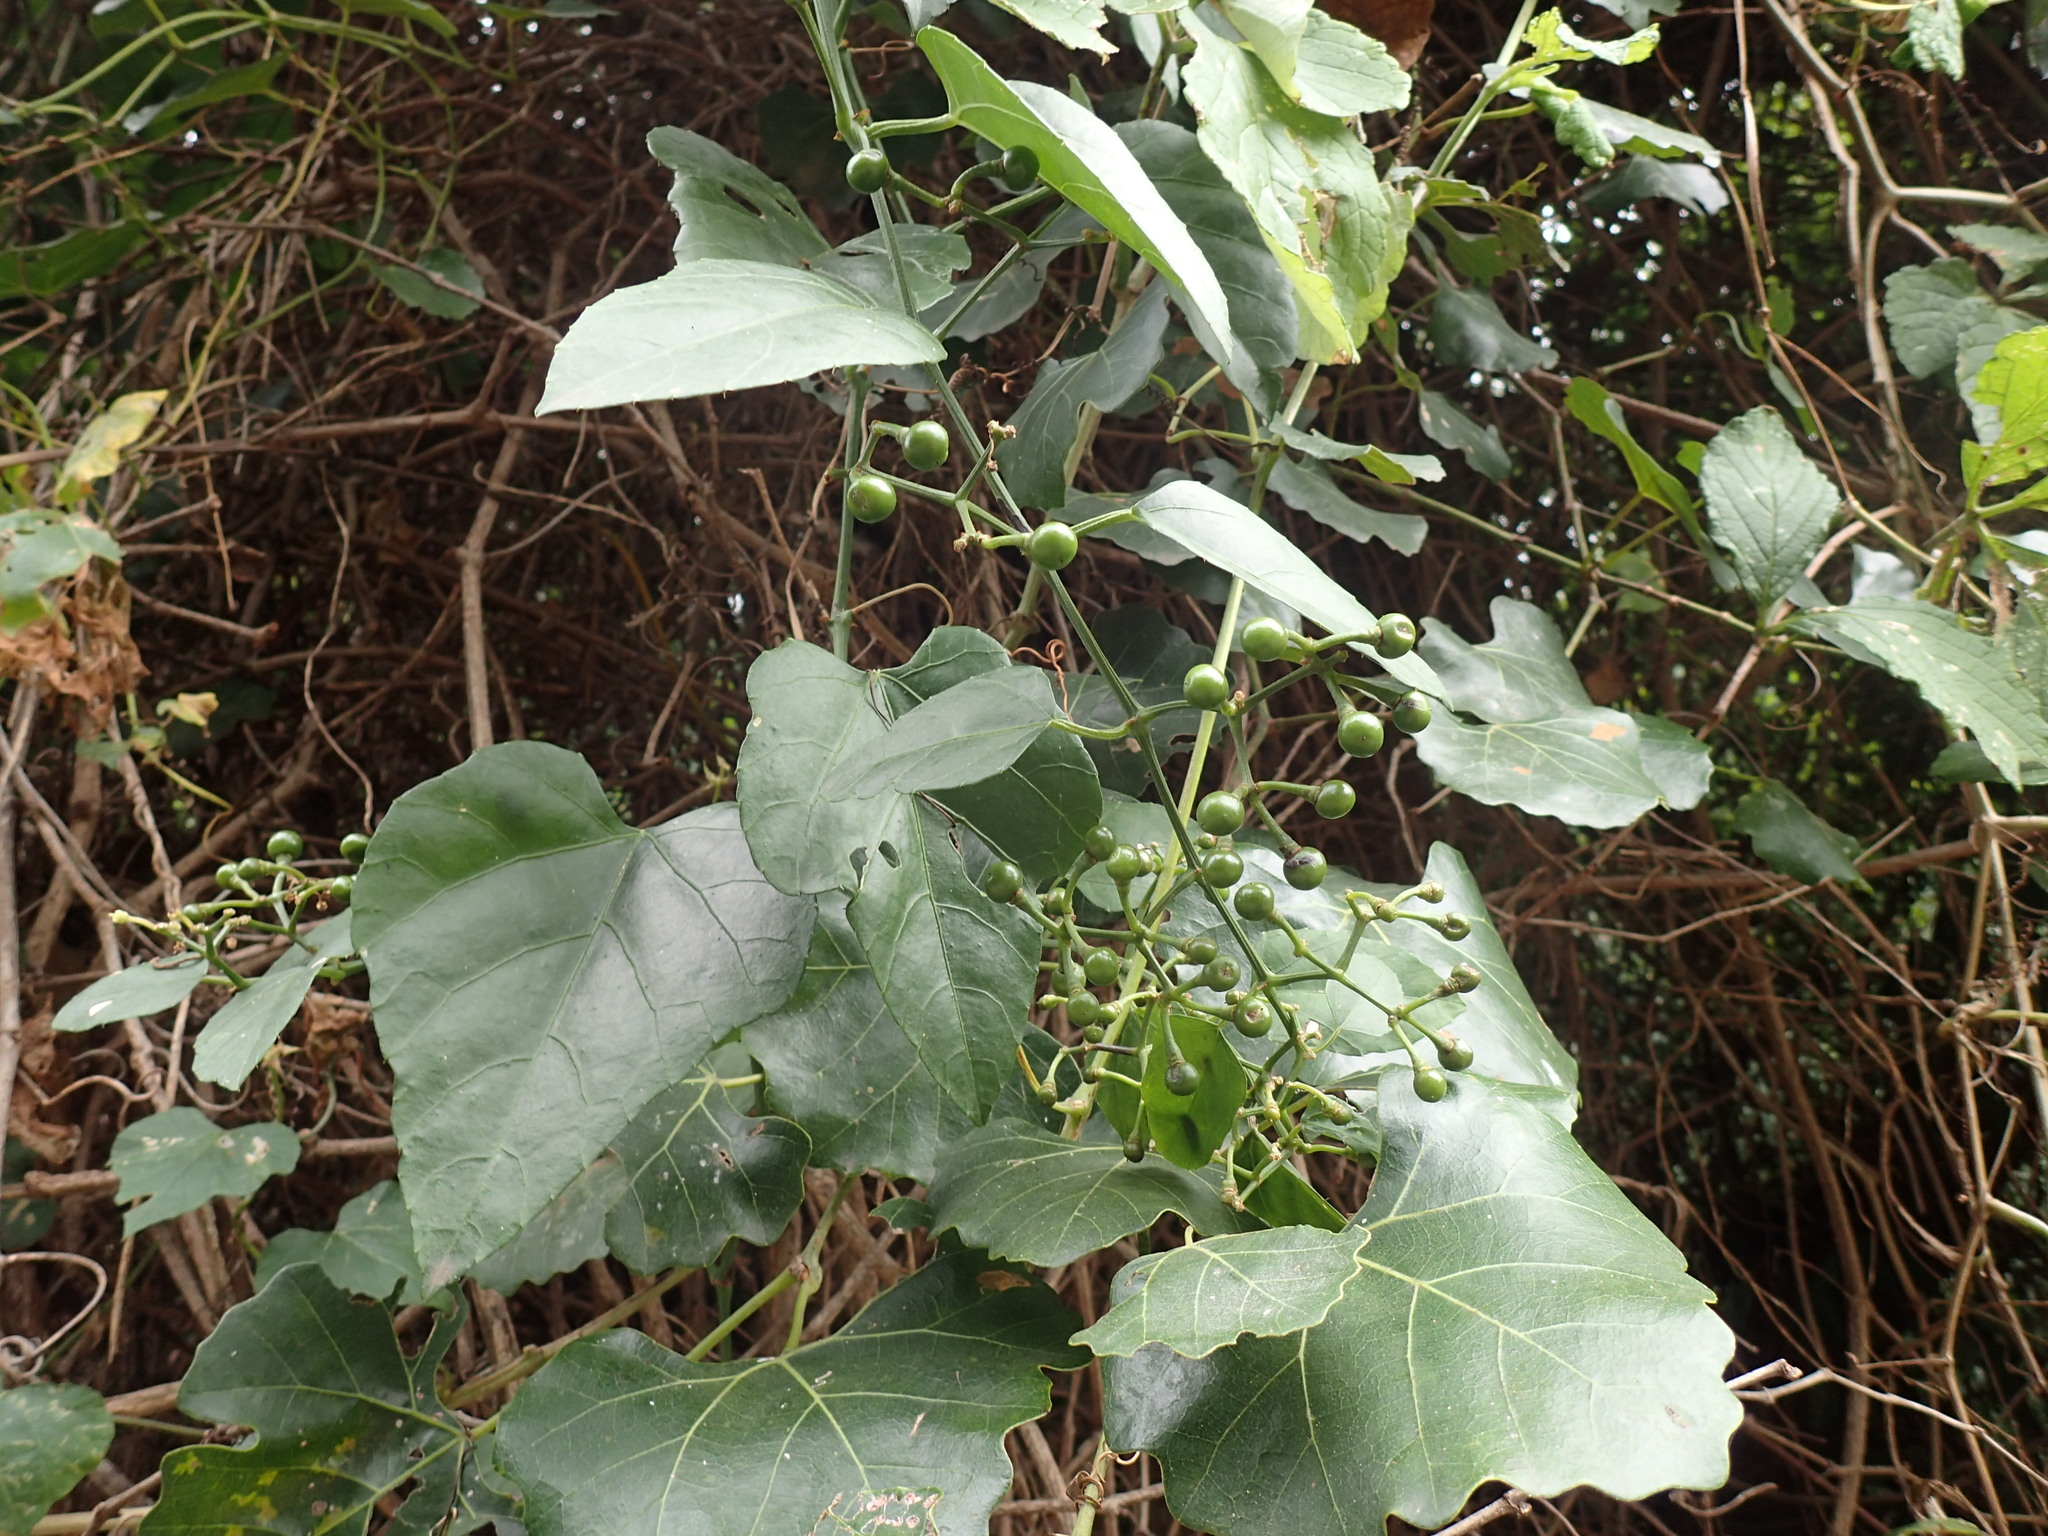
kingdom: Plantae
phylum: Tracheophyta
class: Magnoliopsida
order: Vitales
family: Vitaceae
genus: Cissus
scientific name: Cissus fragilis
